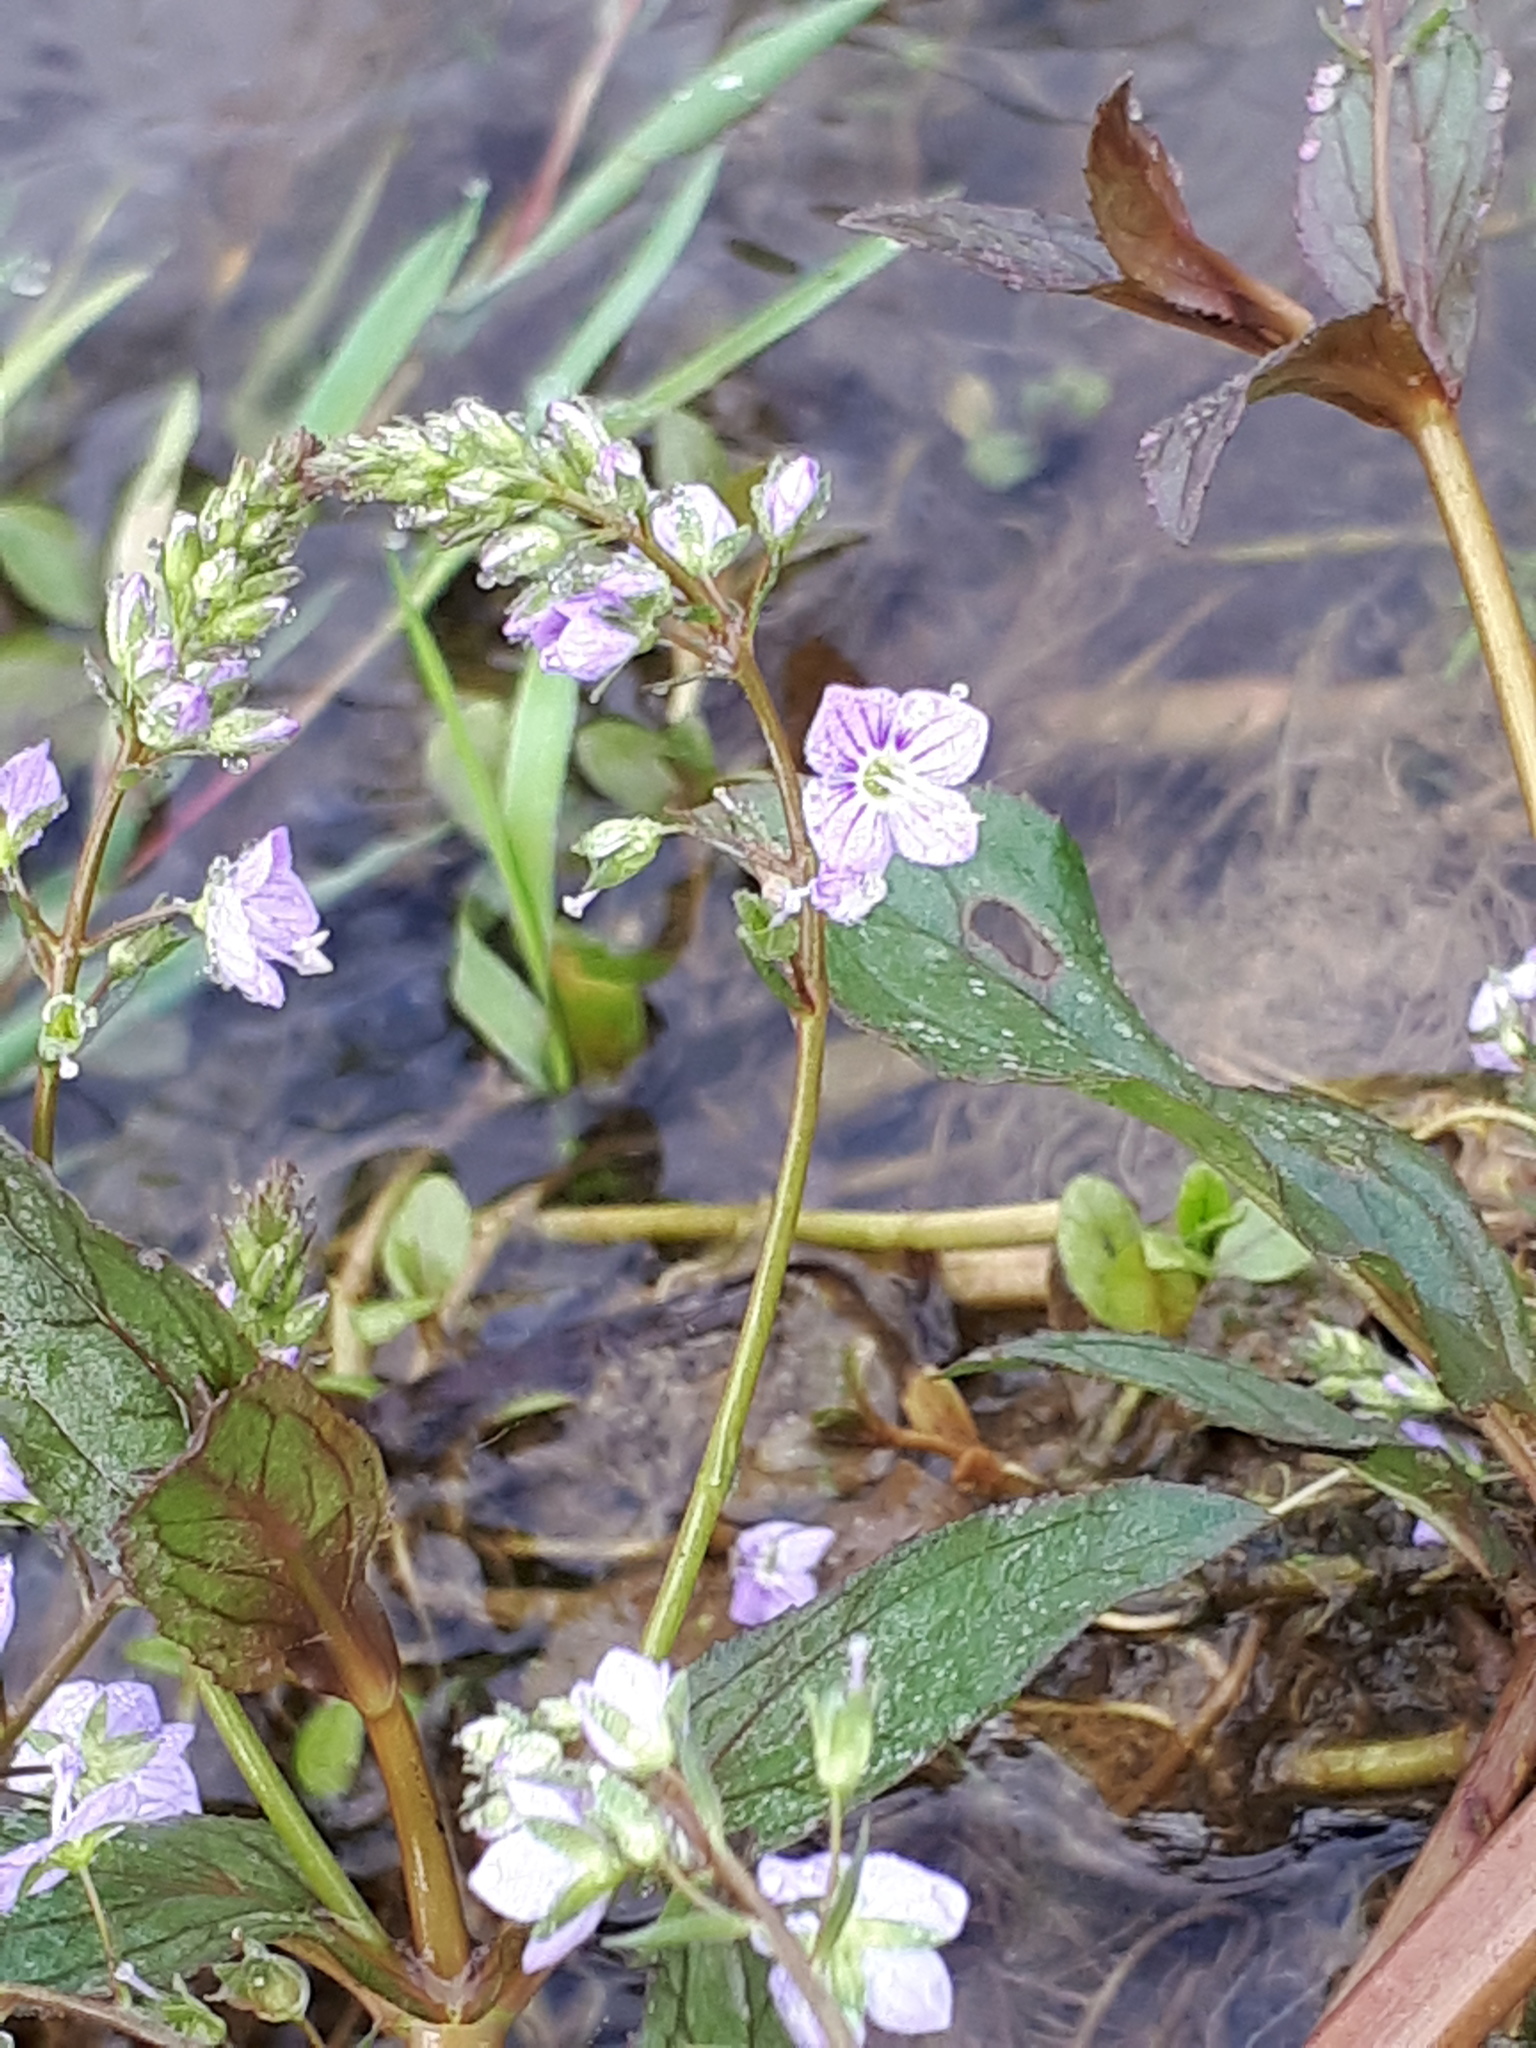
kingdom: Plantae
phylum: Tracheophyta
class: Magnoliopsida
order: Lamiales
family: Plantaginaceae
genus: Veronica
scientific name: Veronica anagallis-aquatica
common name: Water speedwell
